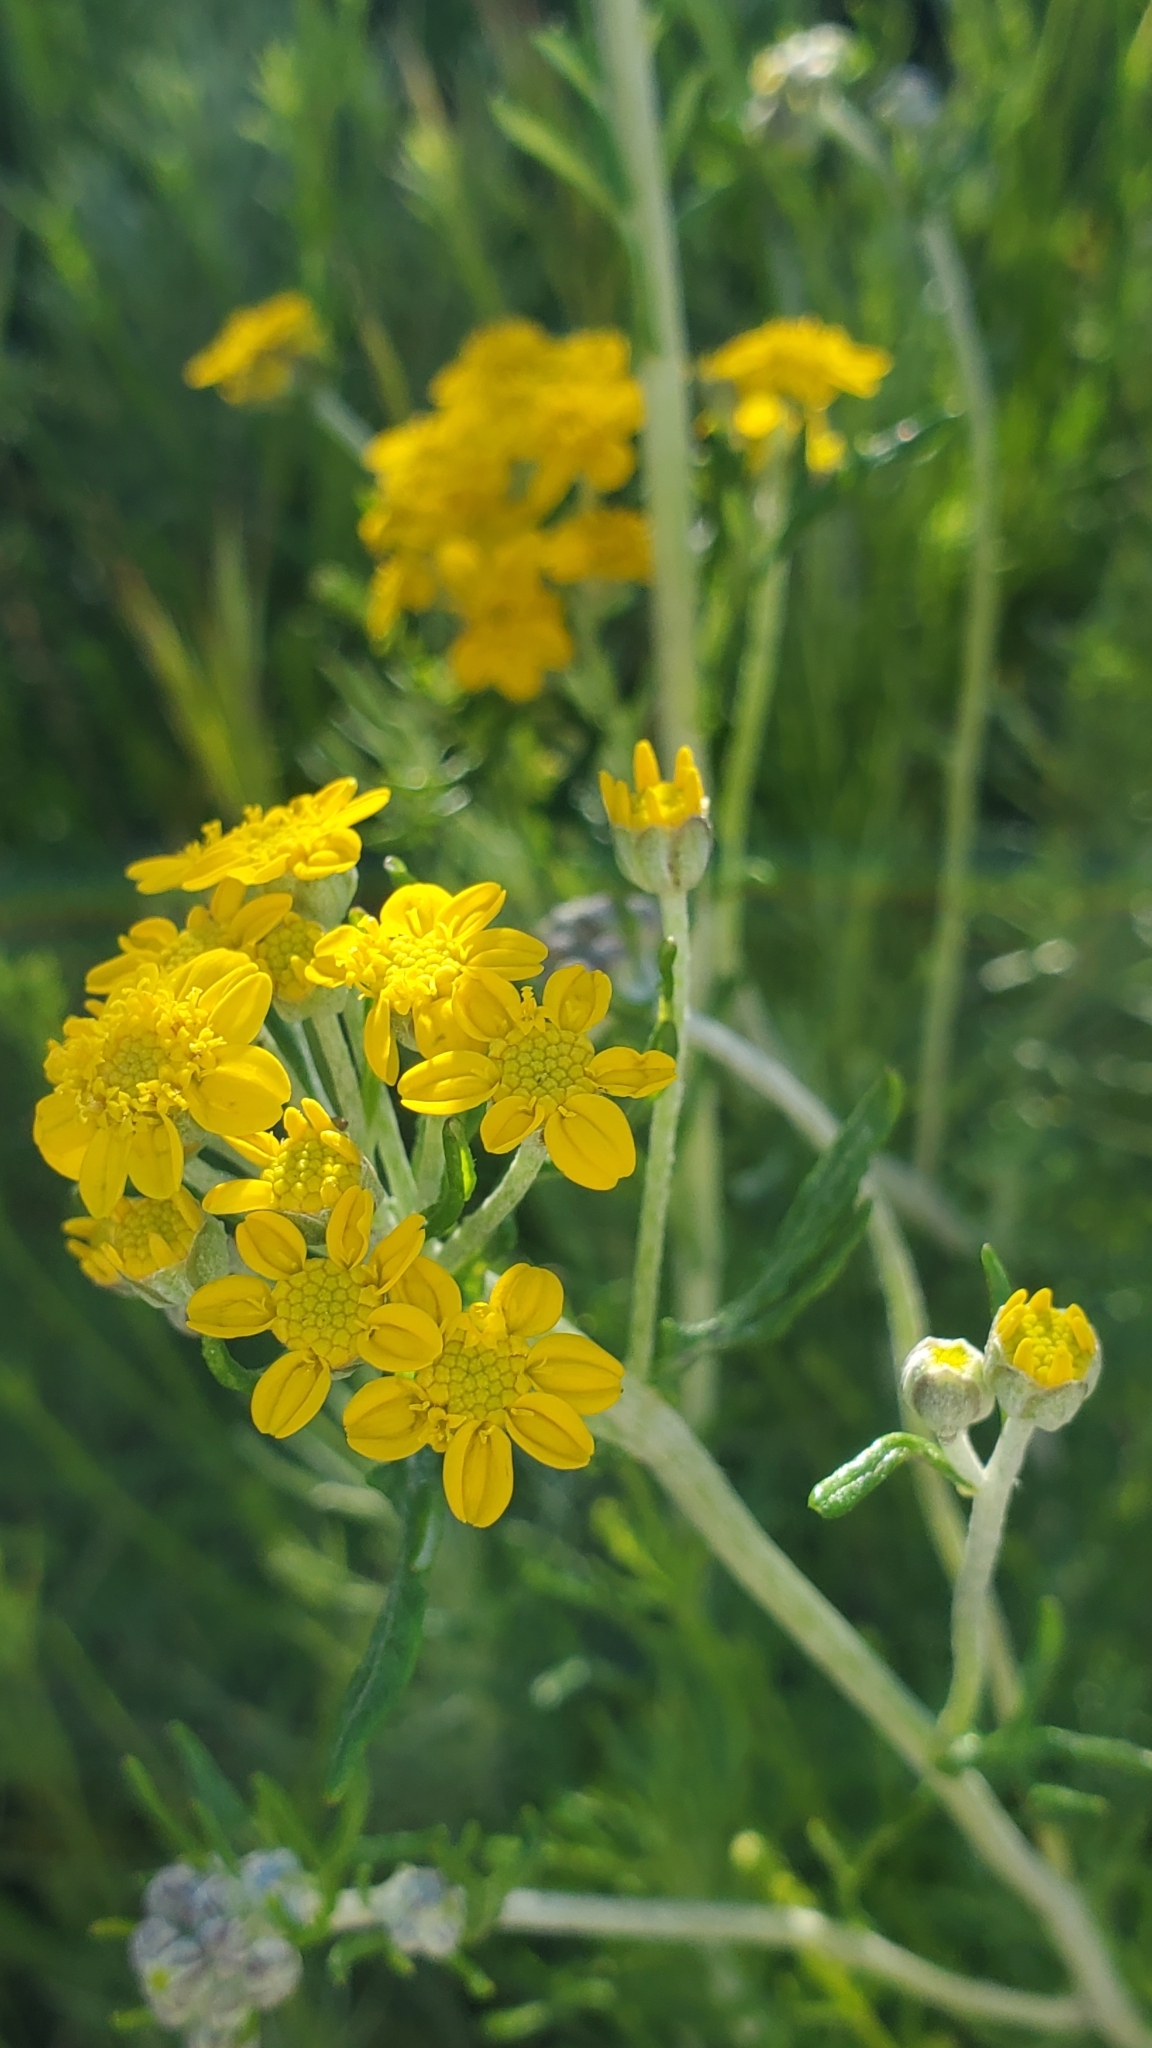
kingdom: Plantae
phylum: Tracheophyta
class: Magnoliopsida
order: Asterales
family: Asteraceae
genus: Eriophyllum
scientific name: Eriophyllum confertiflorum
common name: Golden-yarrow
